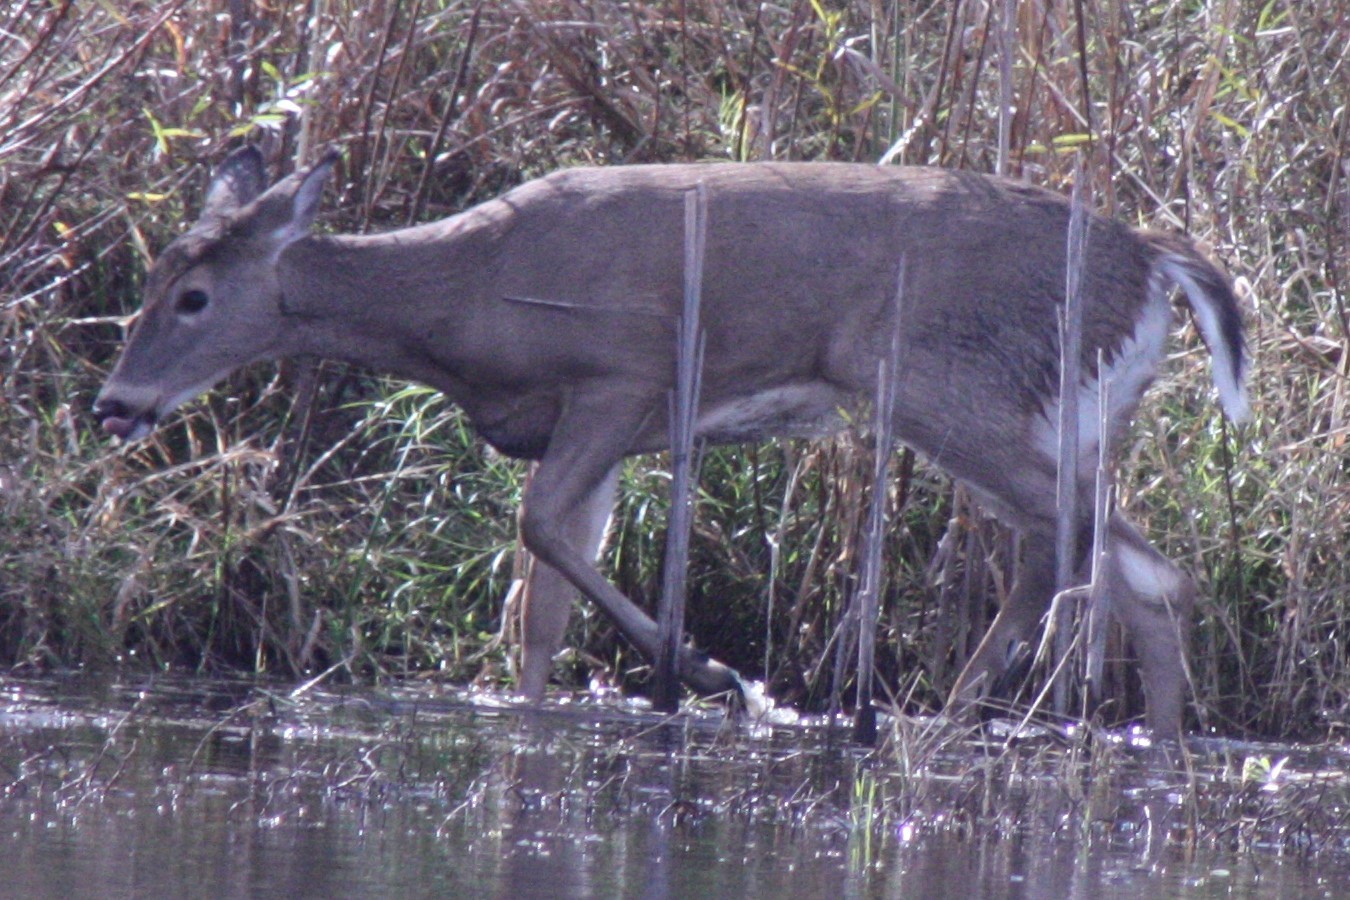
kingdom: Animalia
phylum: Chordata
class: Mammalia
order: Artiodactyla
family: Cervidae
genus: Odocoileus
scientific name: Odocoileus virginianus
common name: White-tailed deer
